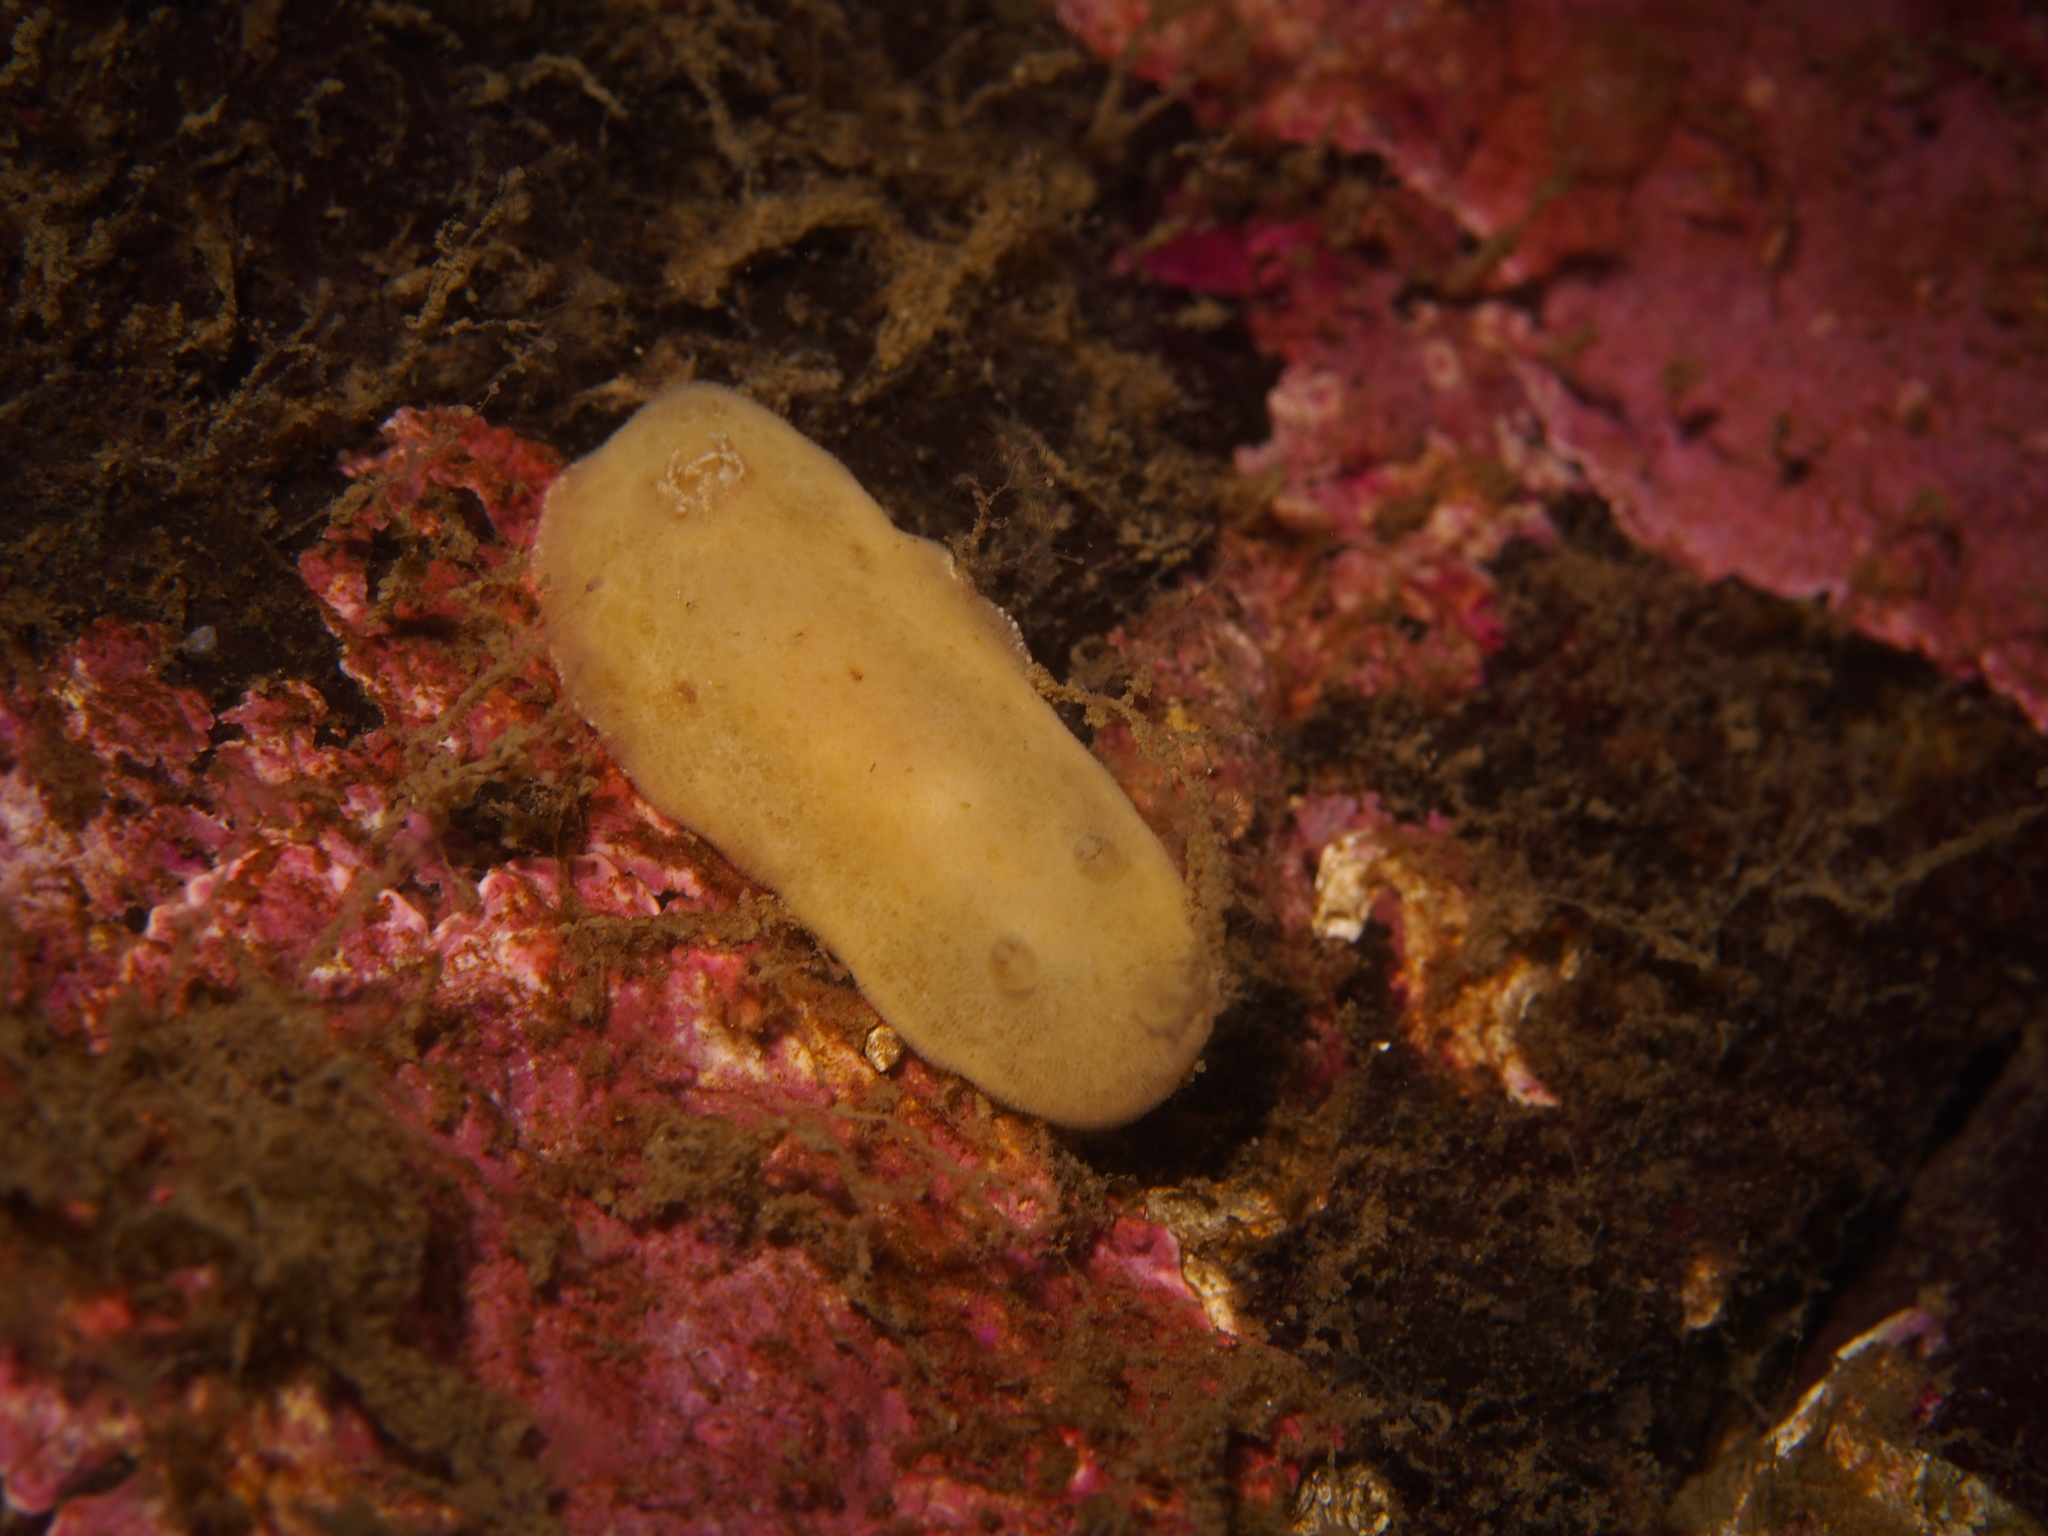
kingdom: Animalia
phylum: Mollusca
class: Gastropoda
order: Nudibranchia
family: Discodorididae
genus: Jorunna
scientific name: Jorunna tomentosa
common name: Grey sea slug
